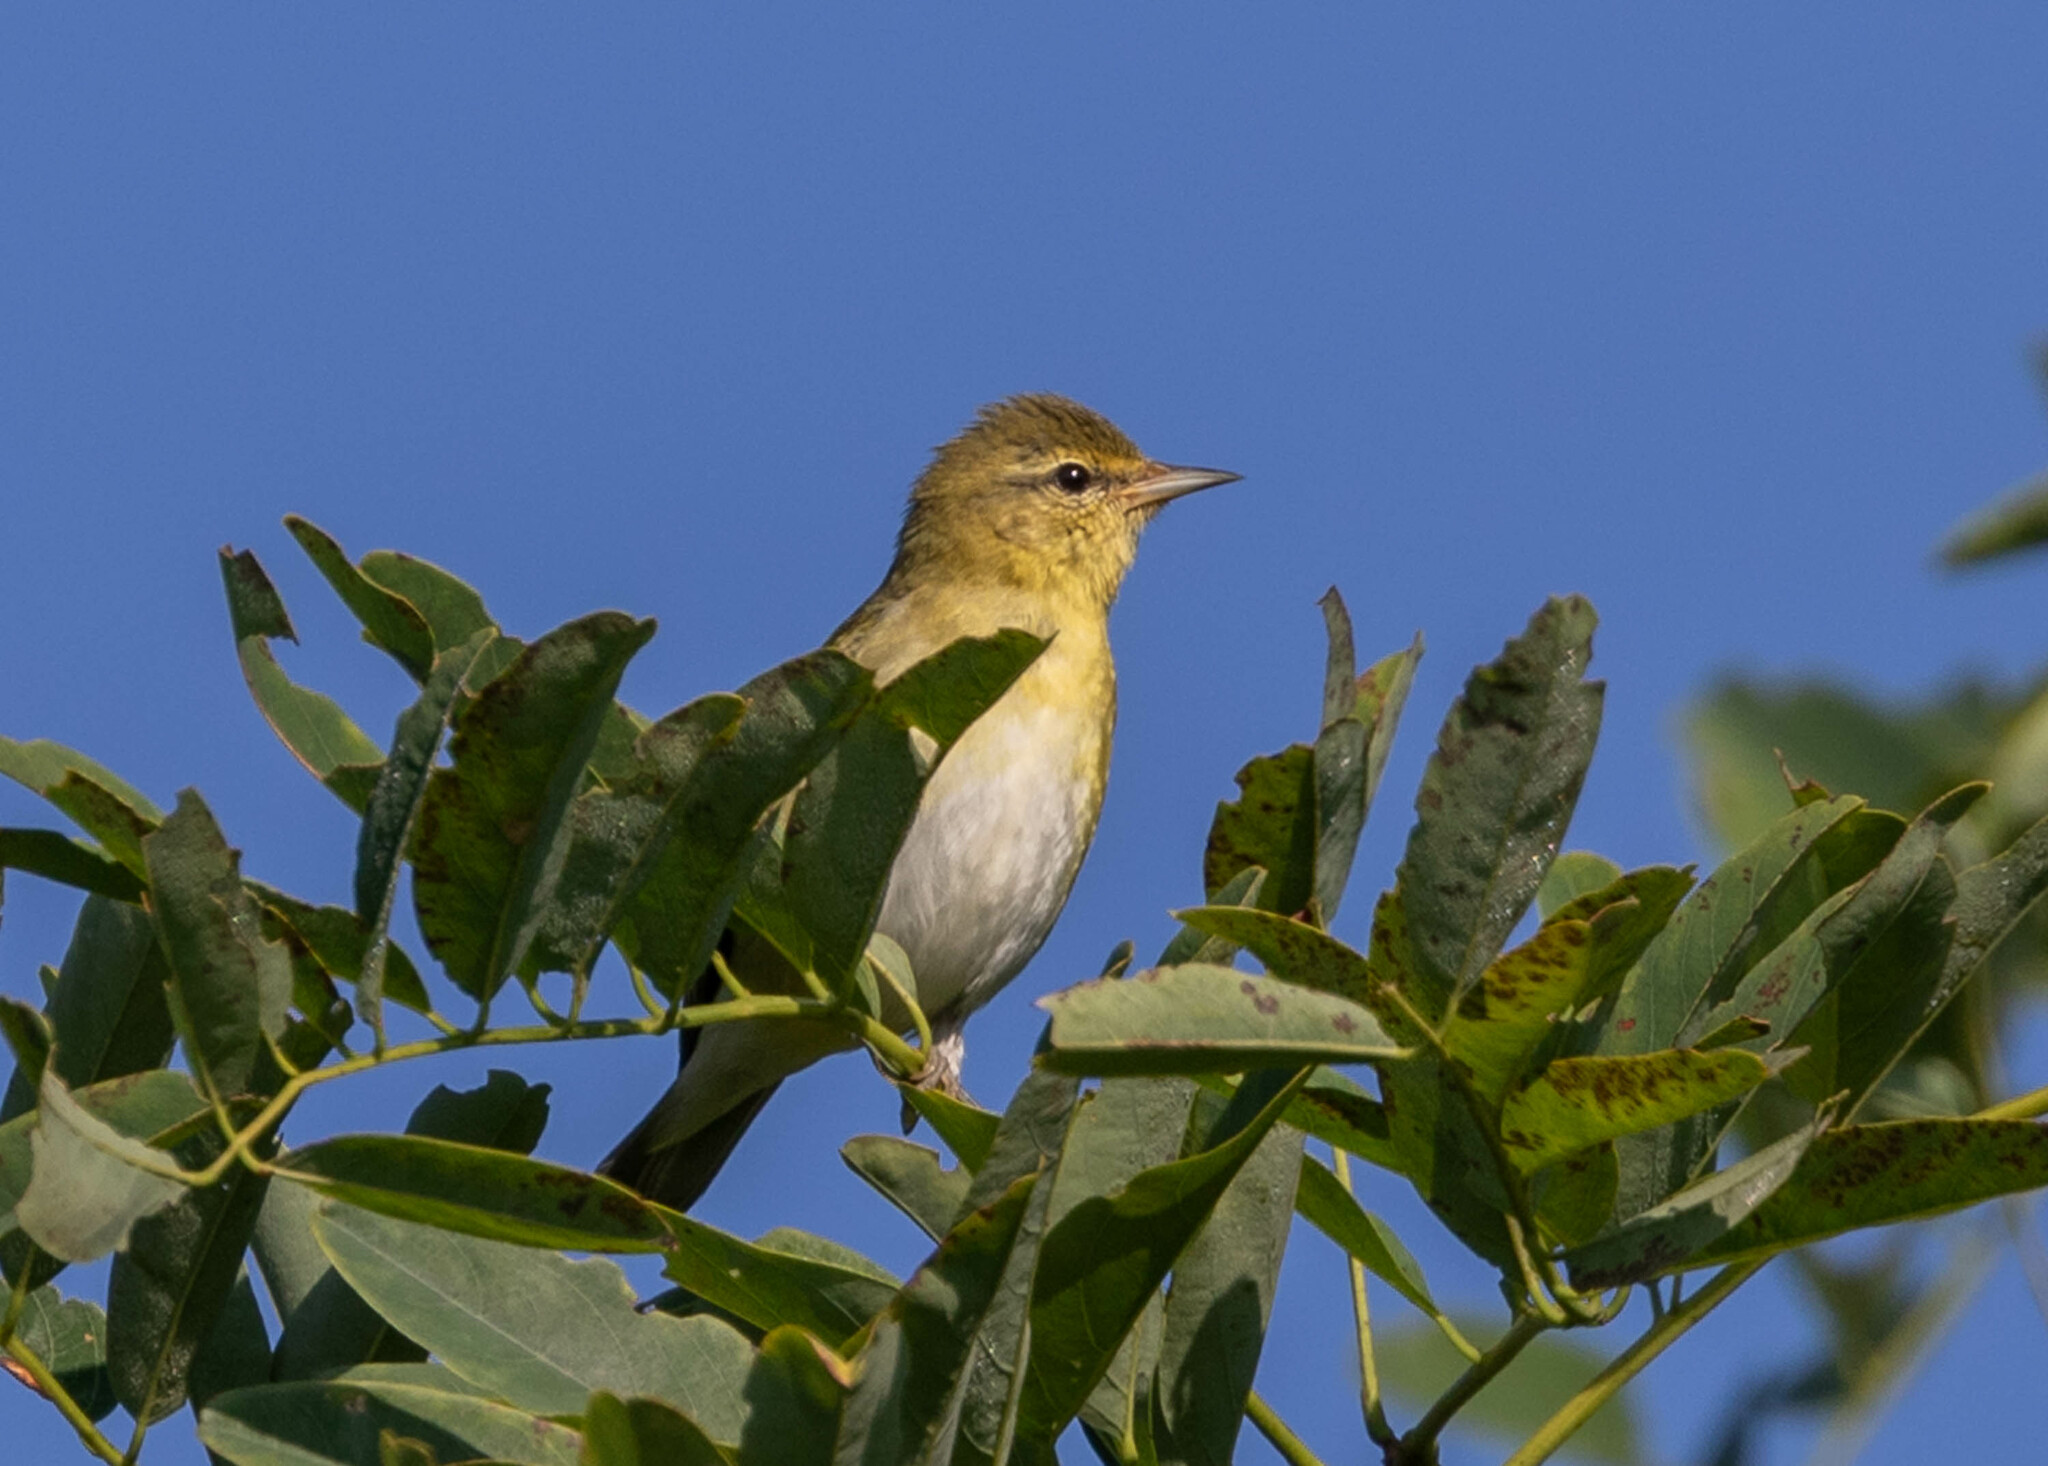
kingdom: Animalia
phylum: Chordata
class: Aves
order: Passeriformes
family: Parulidae
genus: Leiothlypis
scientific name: Leiothlypis peregrina
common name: Tennessee warbler
